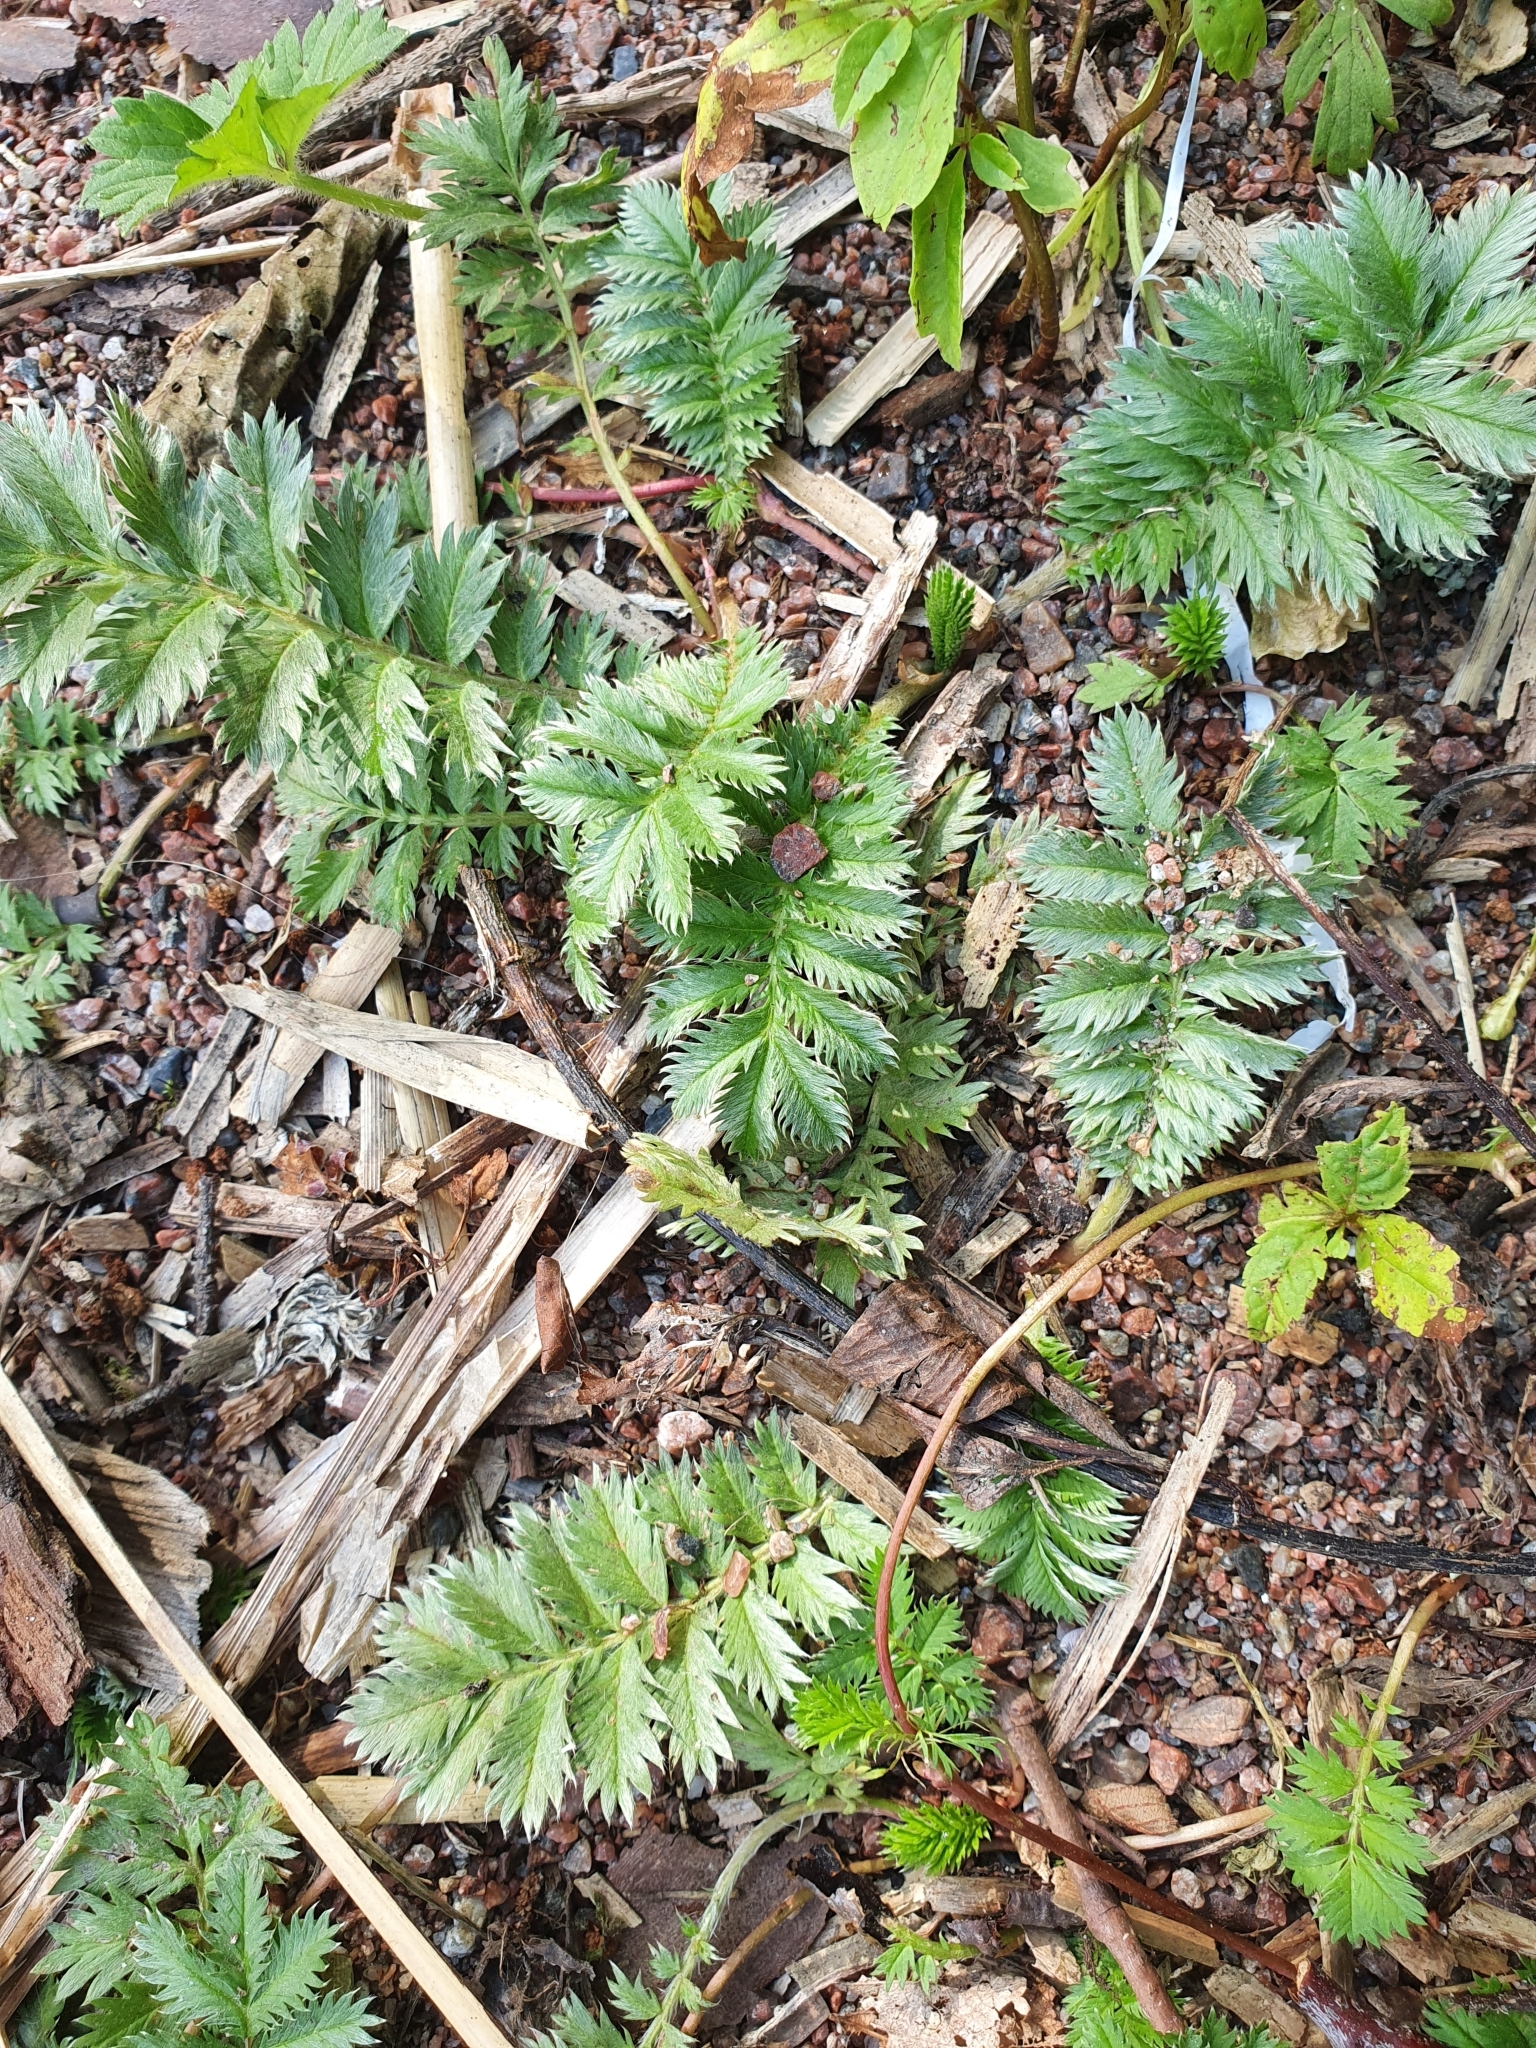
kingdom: Plantae
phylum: Tracheophyta
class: Magnoliopsida
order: Rosales
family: Rosaceae
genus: Argentina
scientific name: Argentina anserina
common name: Common silverweed
